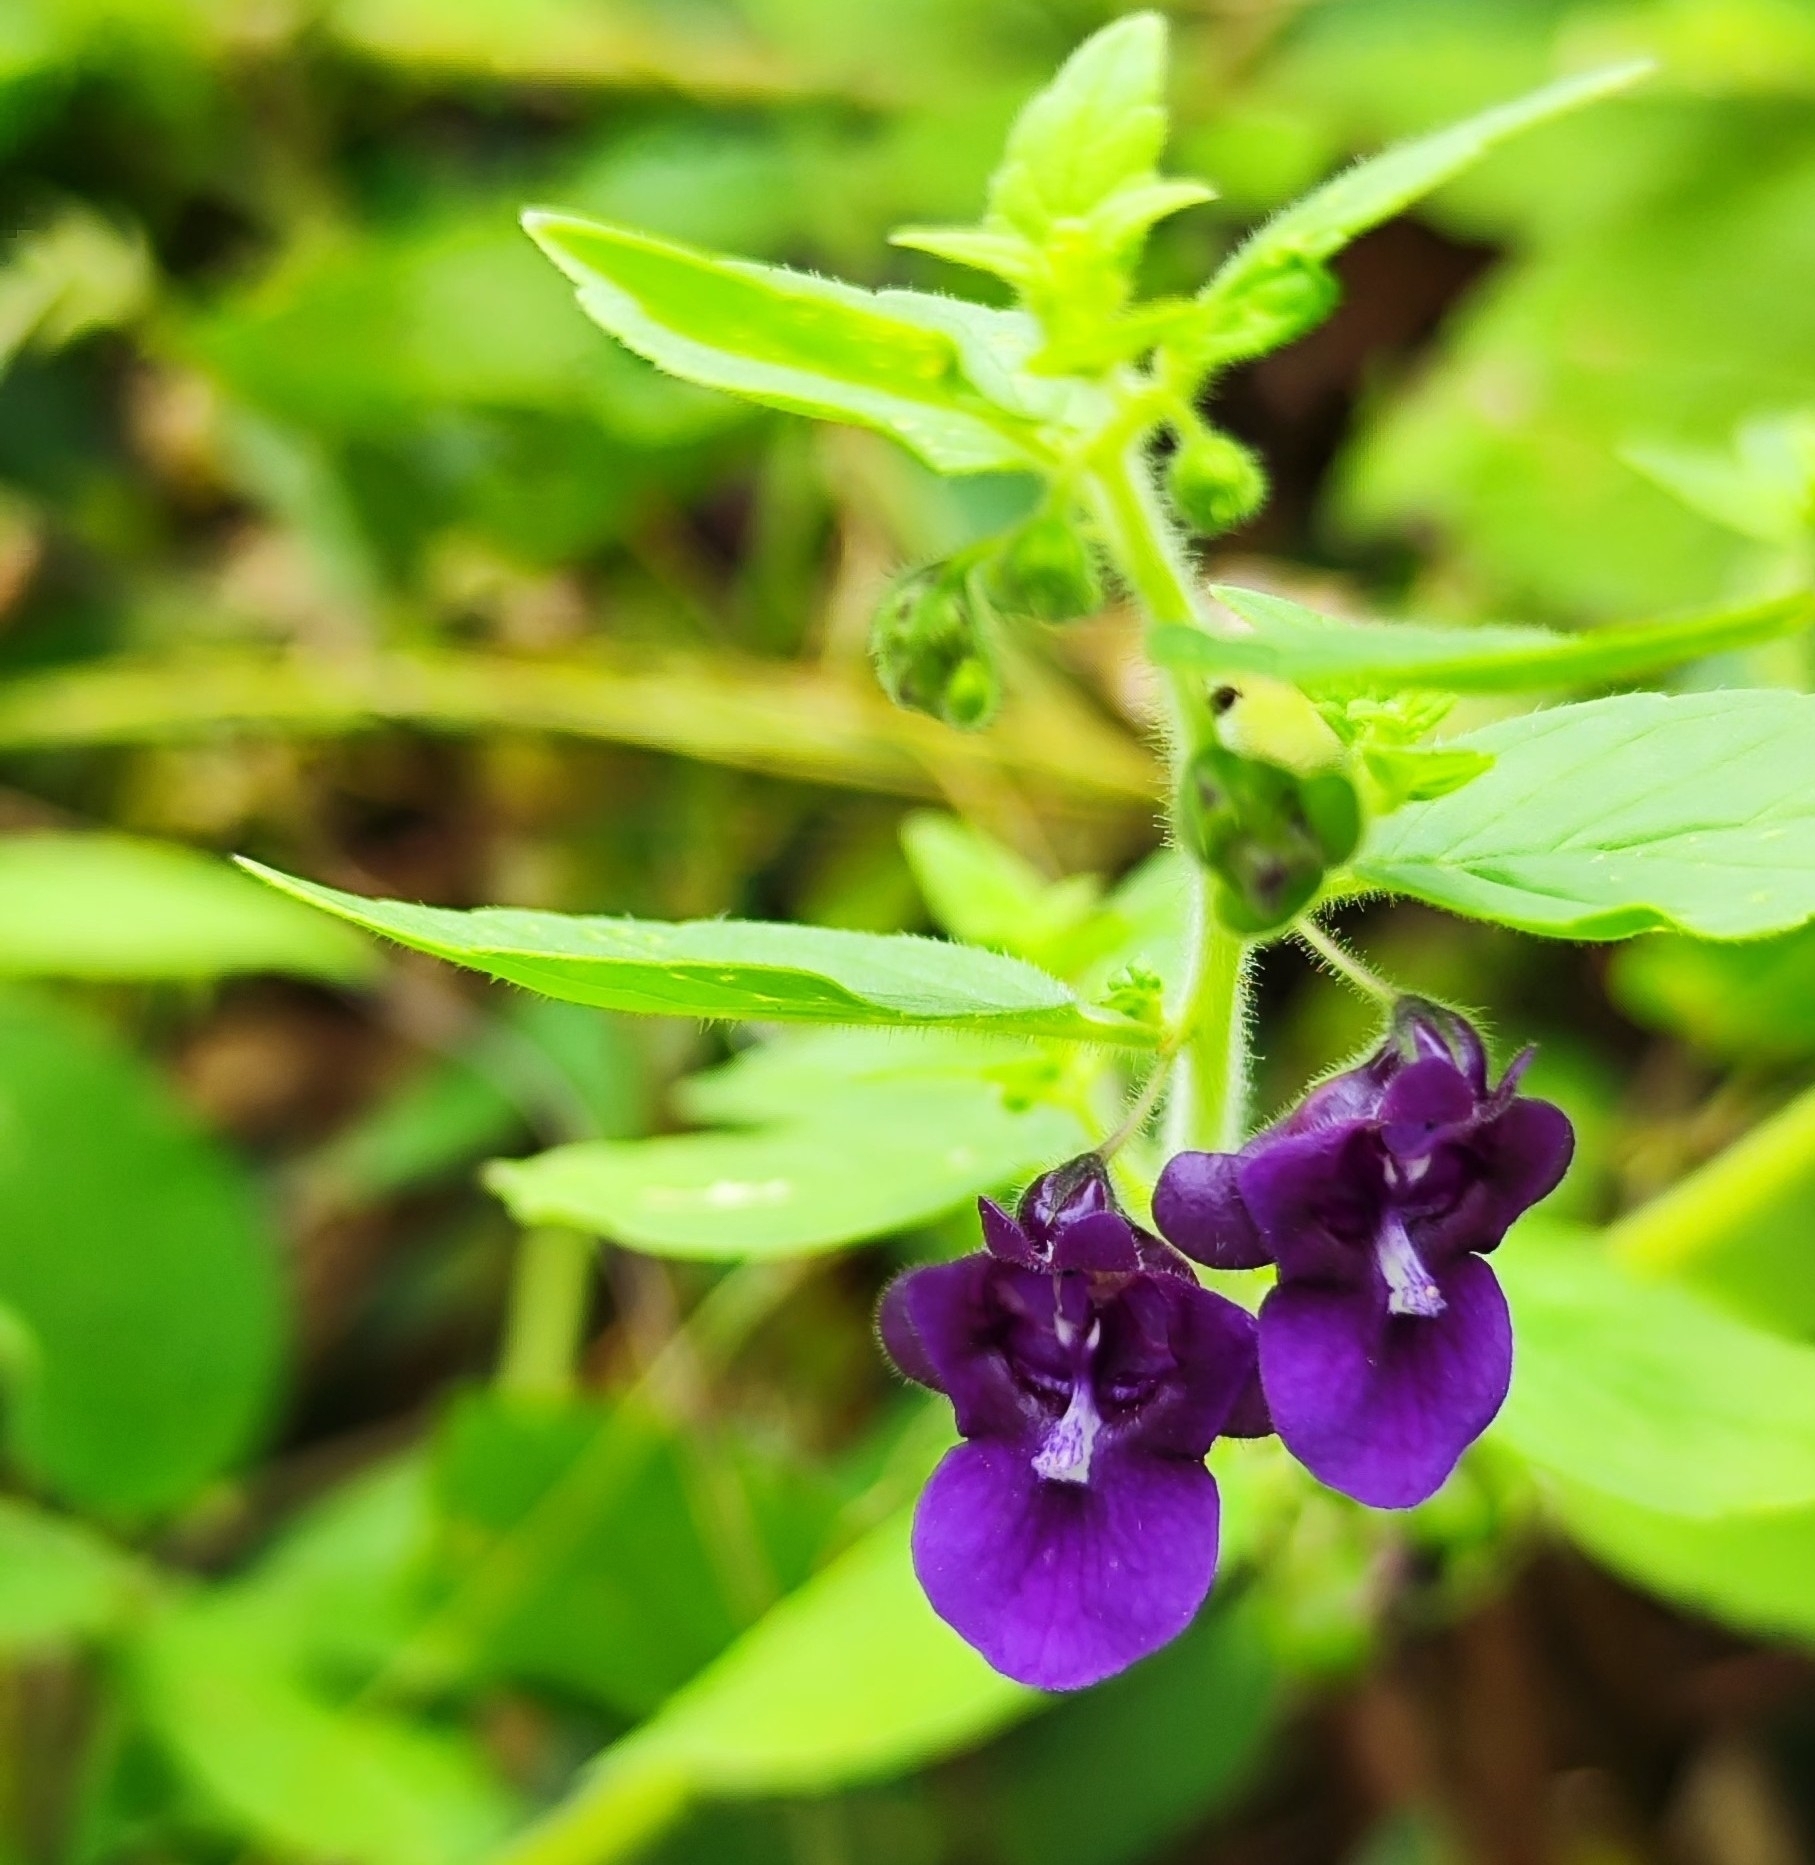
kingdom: Plantae
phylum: Tracheophyta
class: Magnoliopsida
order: Lamiales
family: Plantaginaceae
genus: Angelonia
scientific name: Angelonia pubescens
